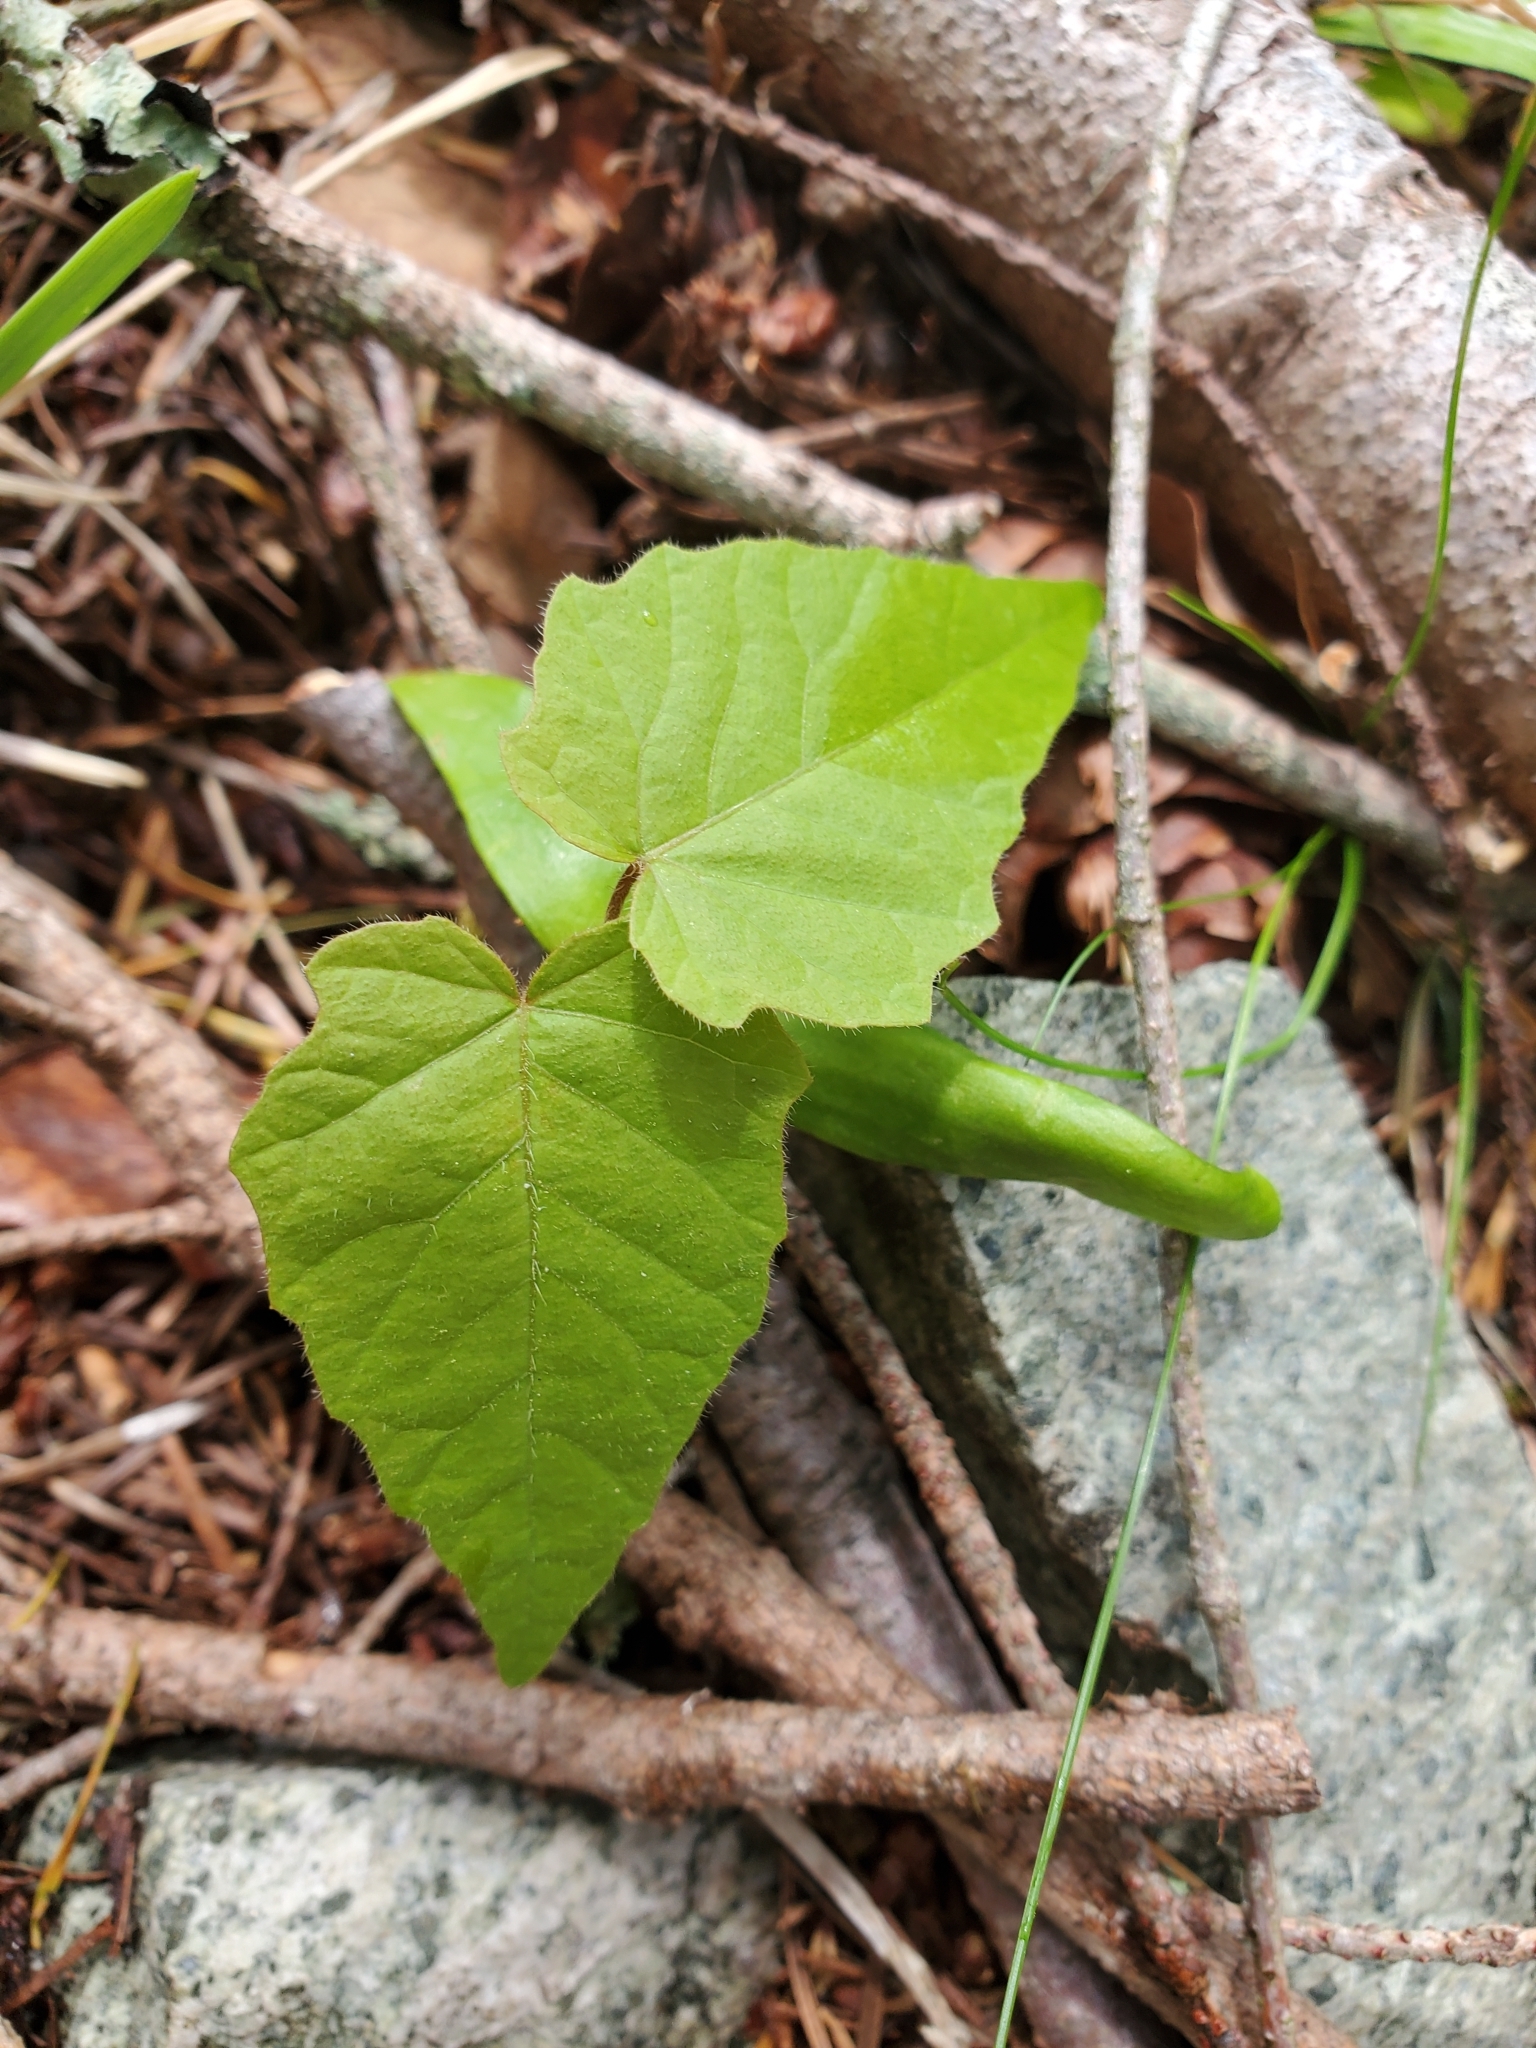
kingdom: Plantae
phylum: Tracheophyta
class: Magnoliopsida
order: Sapindales
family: Sapindaceae
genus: Acer
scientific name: Acer macrophyllum
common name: Oregon maple
